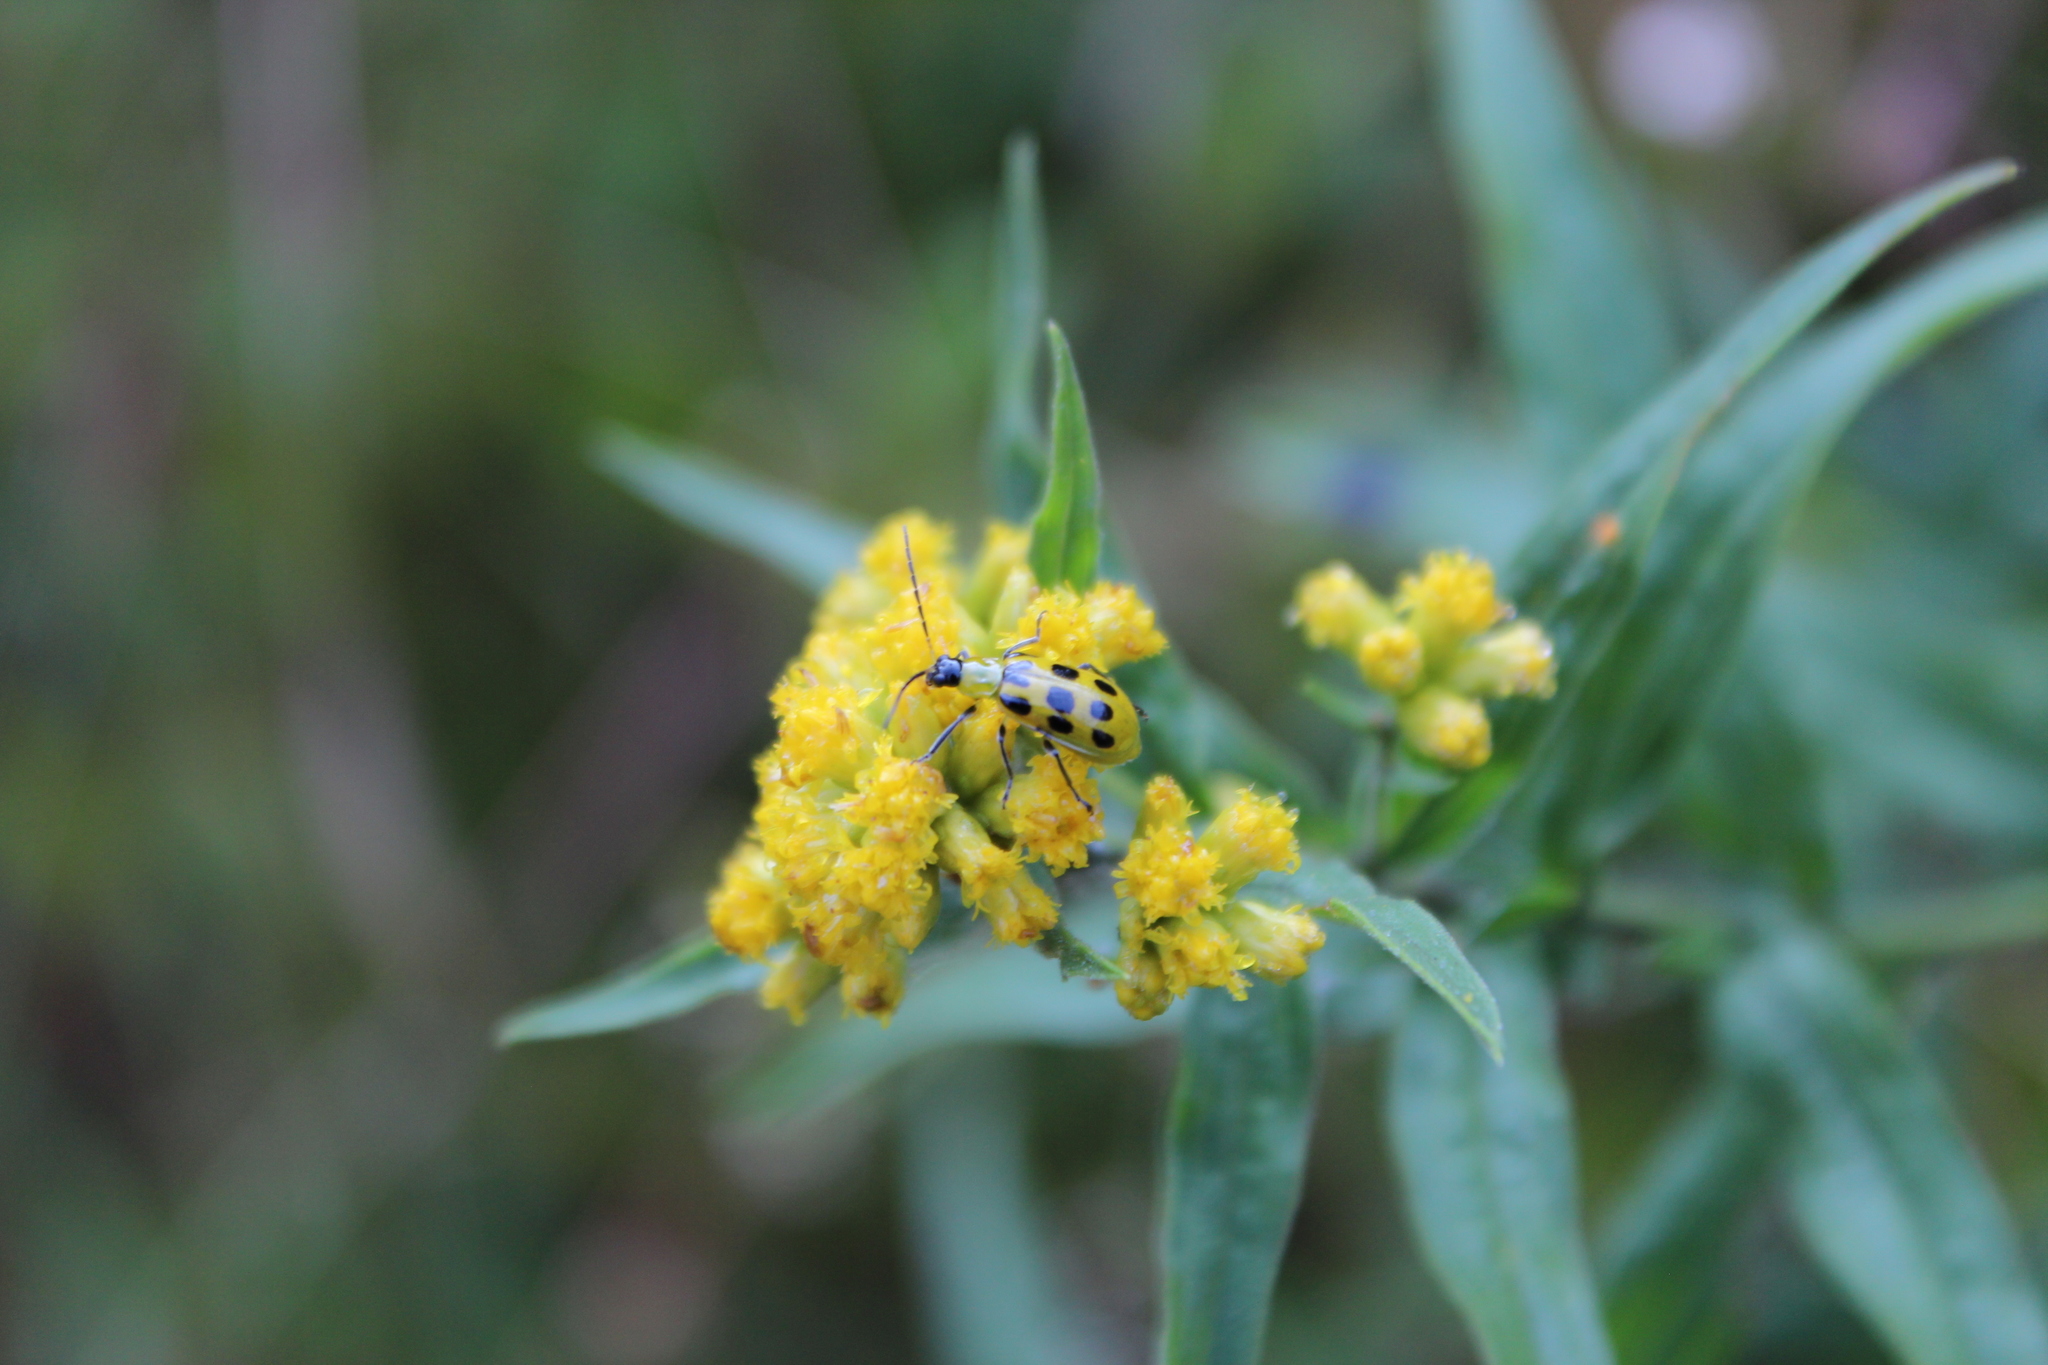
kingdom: Animalia
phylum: Arthropoda
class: Insecta
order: Coleoptera
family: Chrysomelidae
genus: Diabrotica
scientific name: Diabrotica undecimpunctata
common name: Spotted cucumber beetle
